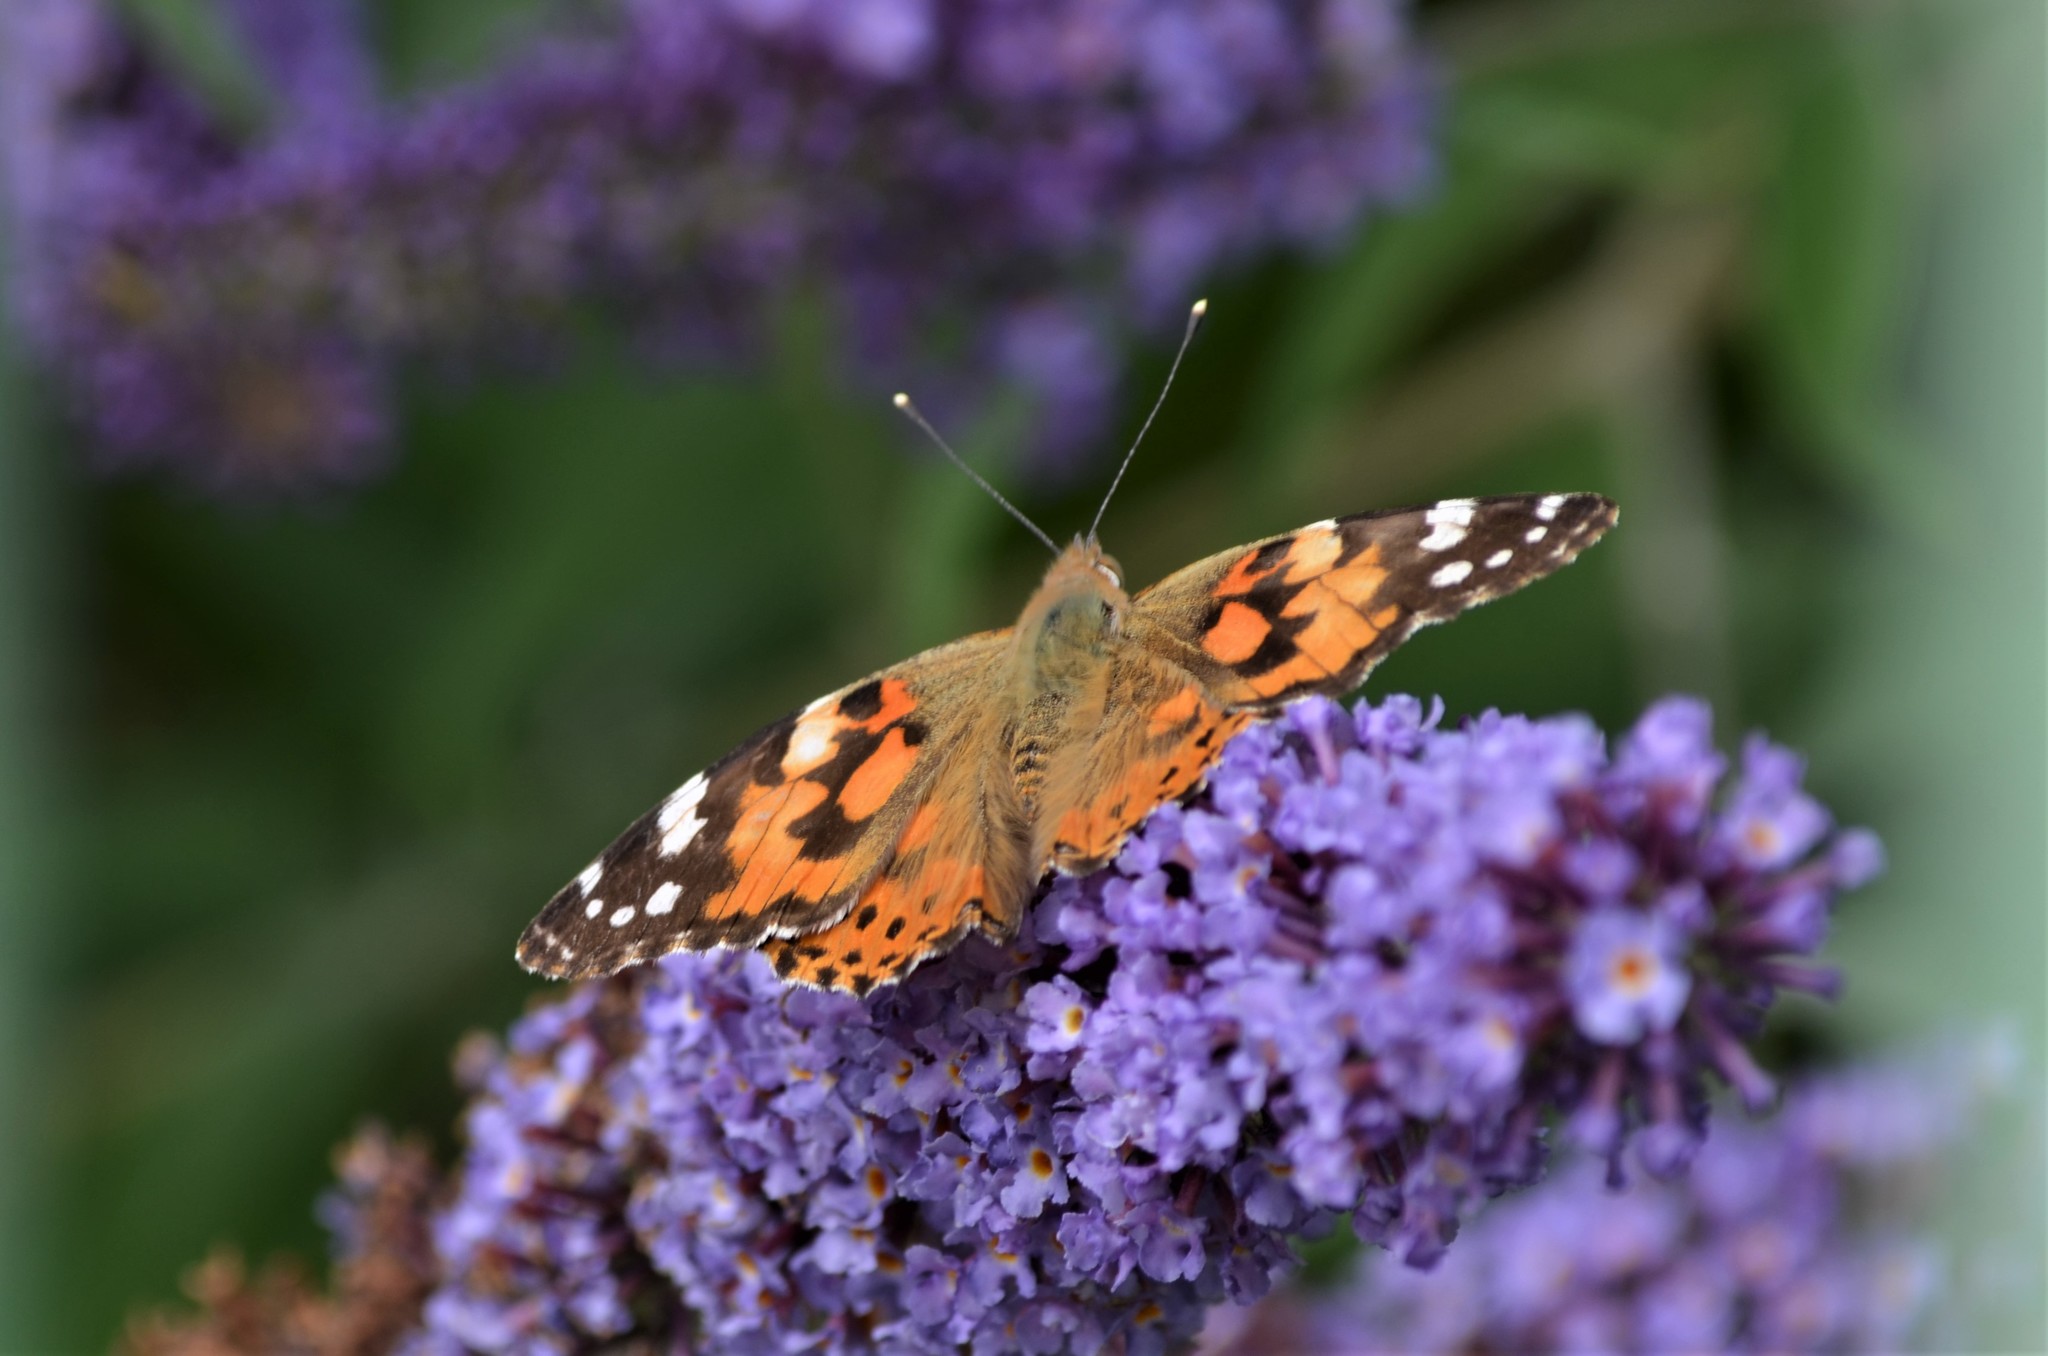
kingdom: Animalia
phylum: Arthropoda
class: Insecta
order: Lepidoptera
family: Nymphalidae
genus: Vanessa
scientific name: Vanessa cardui
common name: Painted lady
